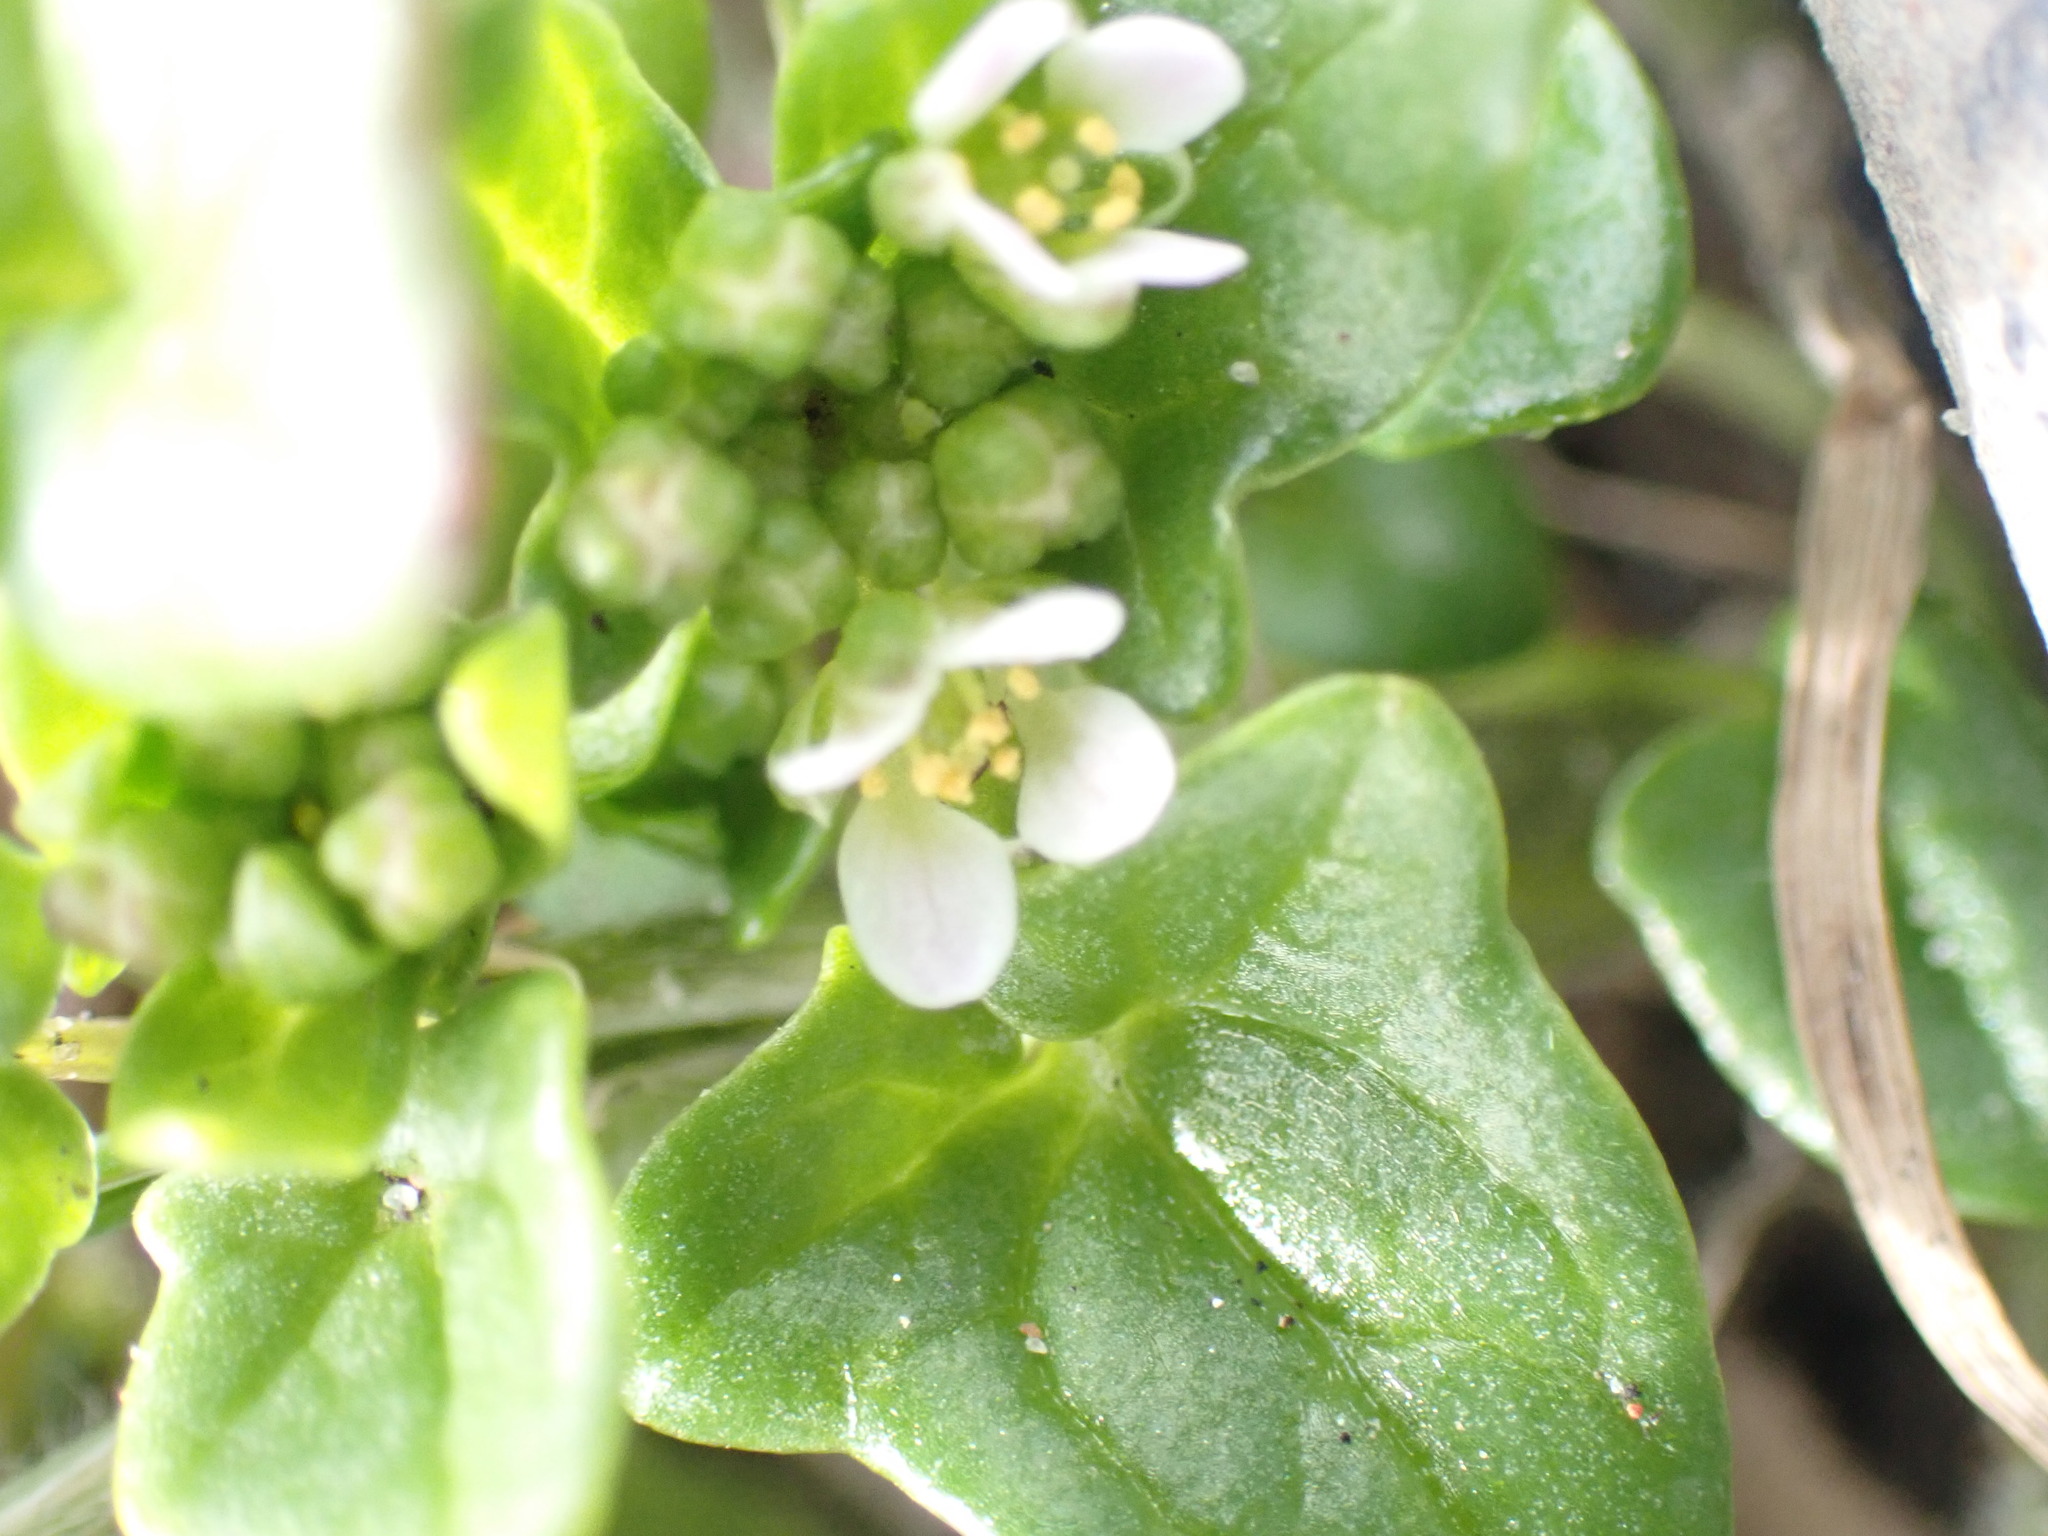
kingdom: Plantae
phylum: Tracheophyta
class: Magnoliopsida
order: Brassicales
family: Brassicaceae
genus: Cochlearia
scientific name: Cochlearia danica
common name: Early scurvygrass
